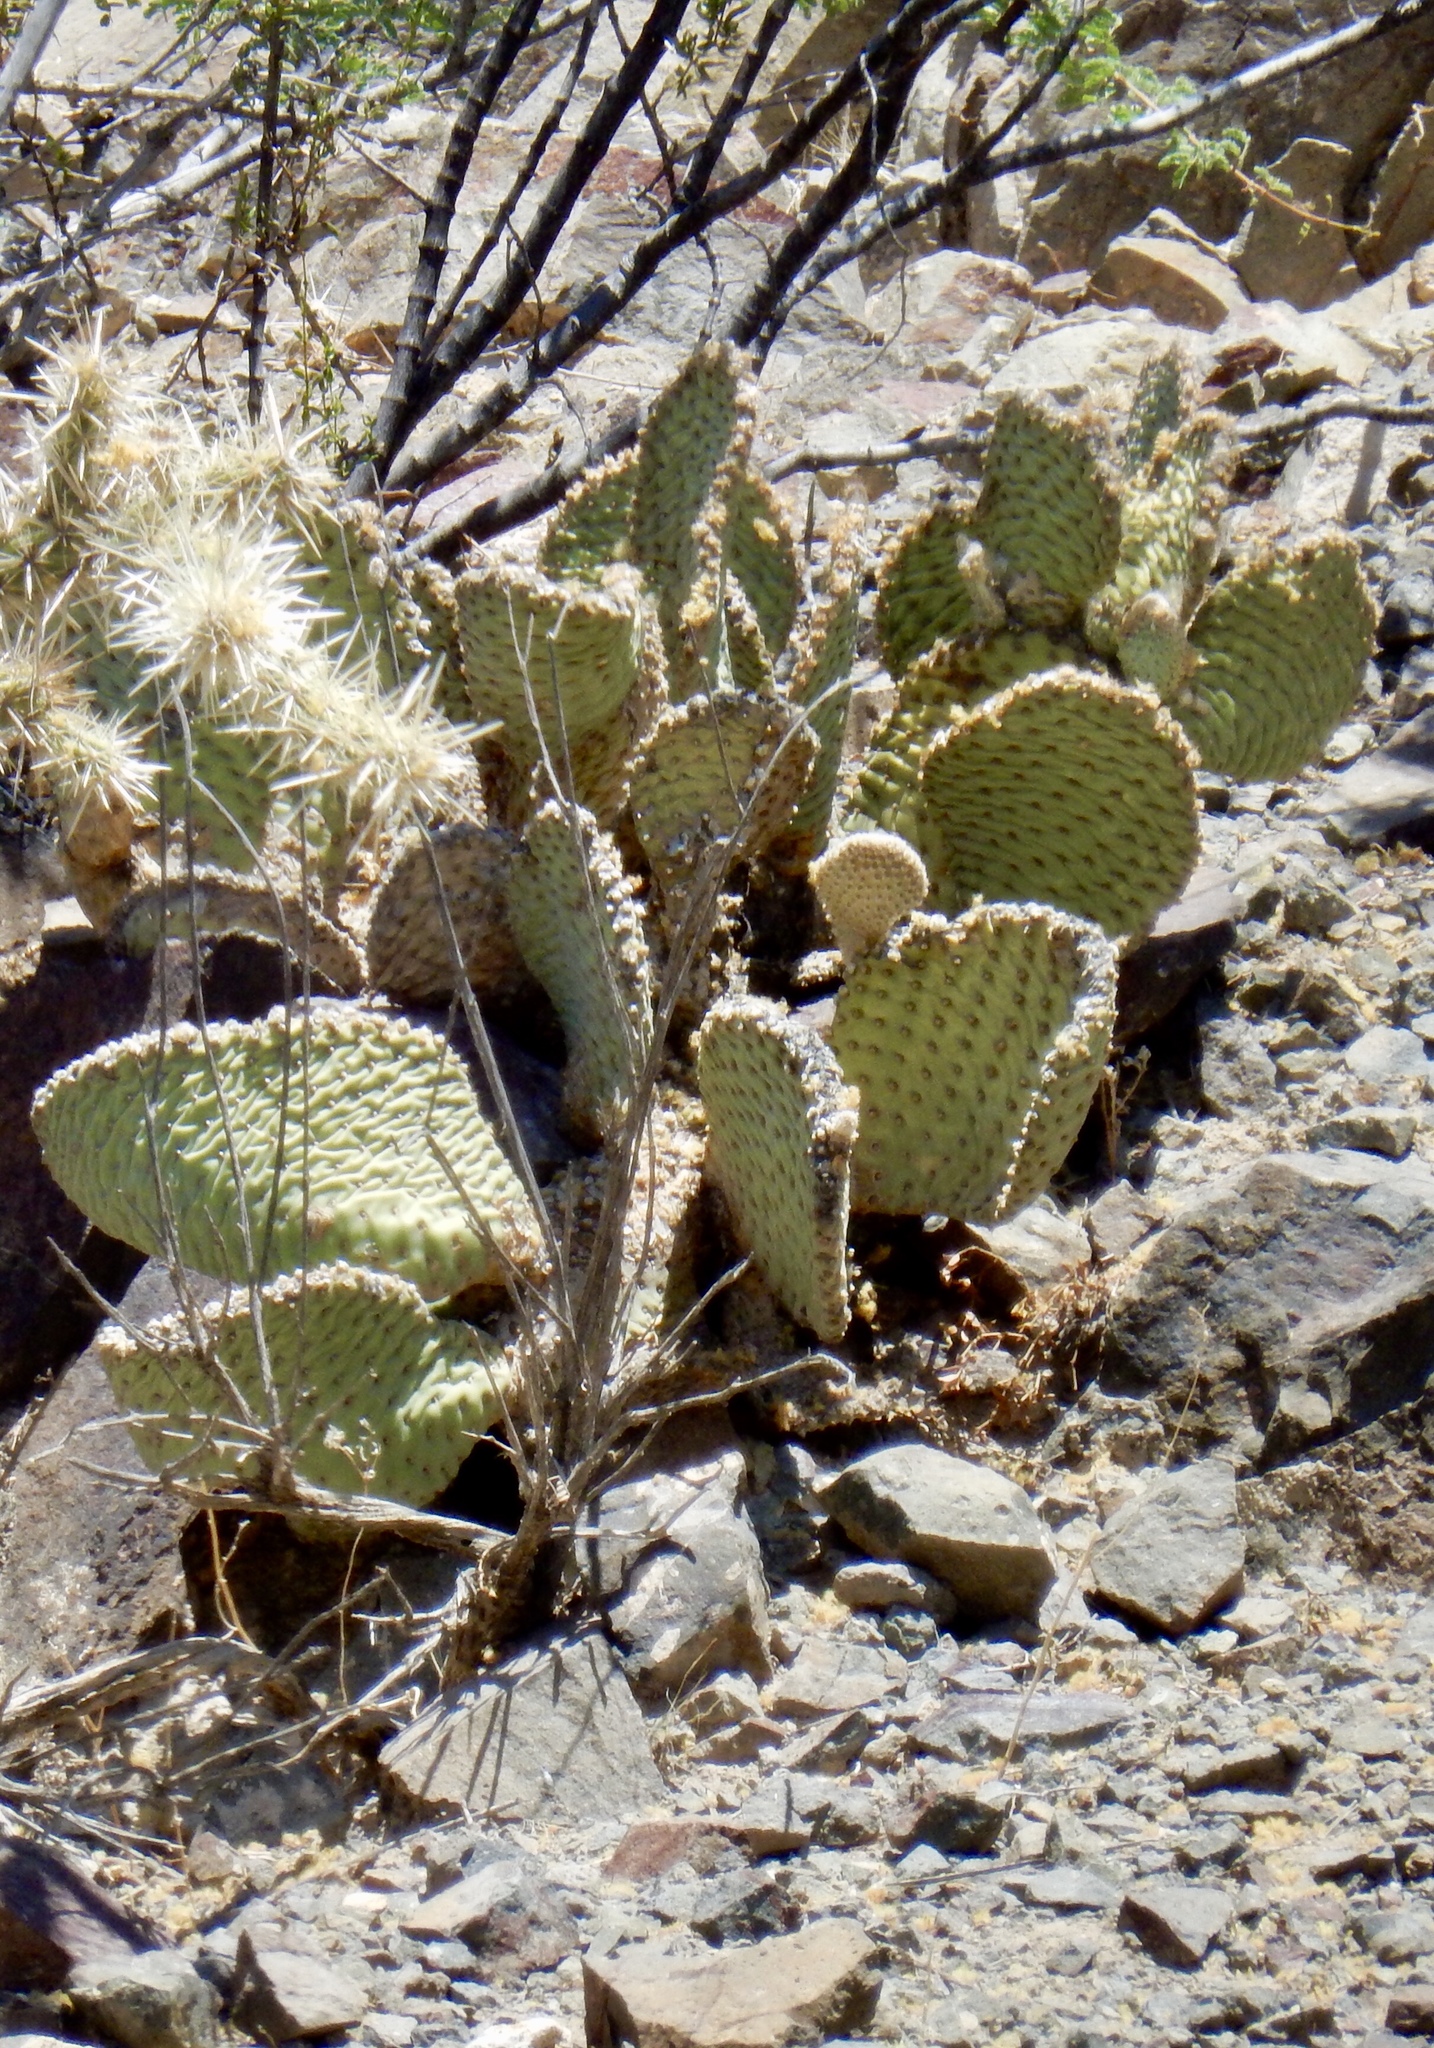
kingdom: Plantae
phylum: Tracheophyta
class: Magnoliopsida
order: Caryophyllales
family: Cactaceae
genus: Opuntia
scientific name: Opuntia basilaris
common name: Beavertail prickly-pear
